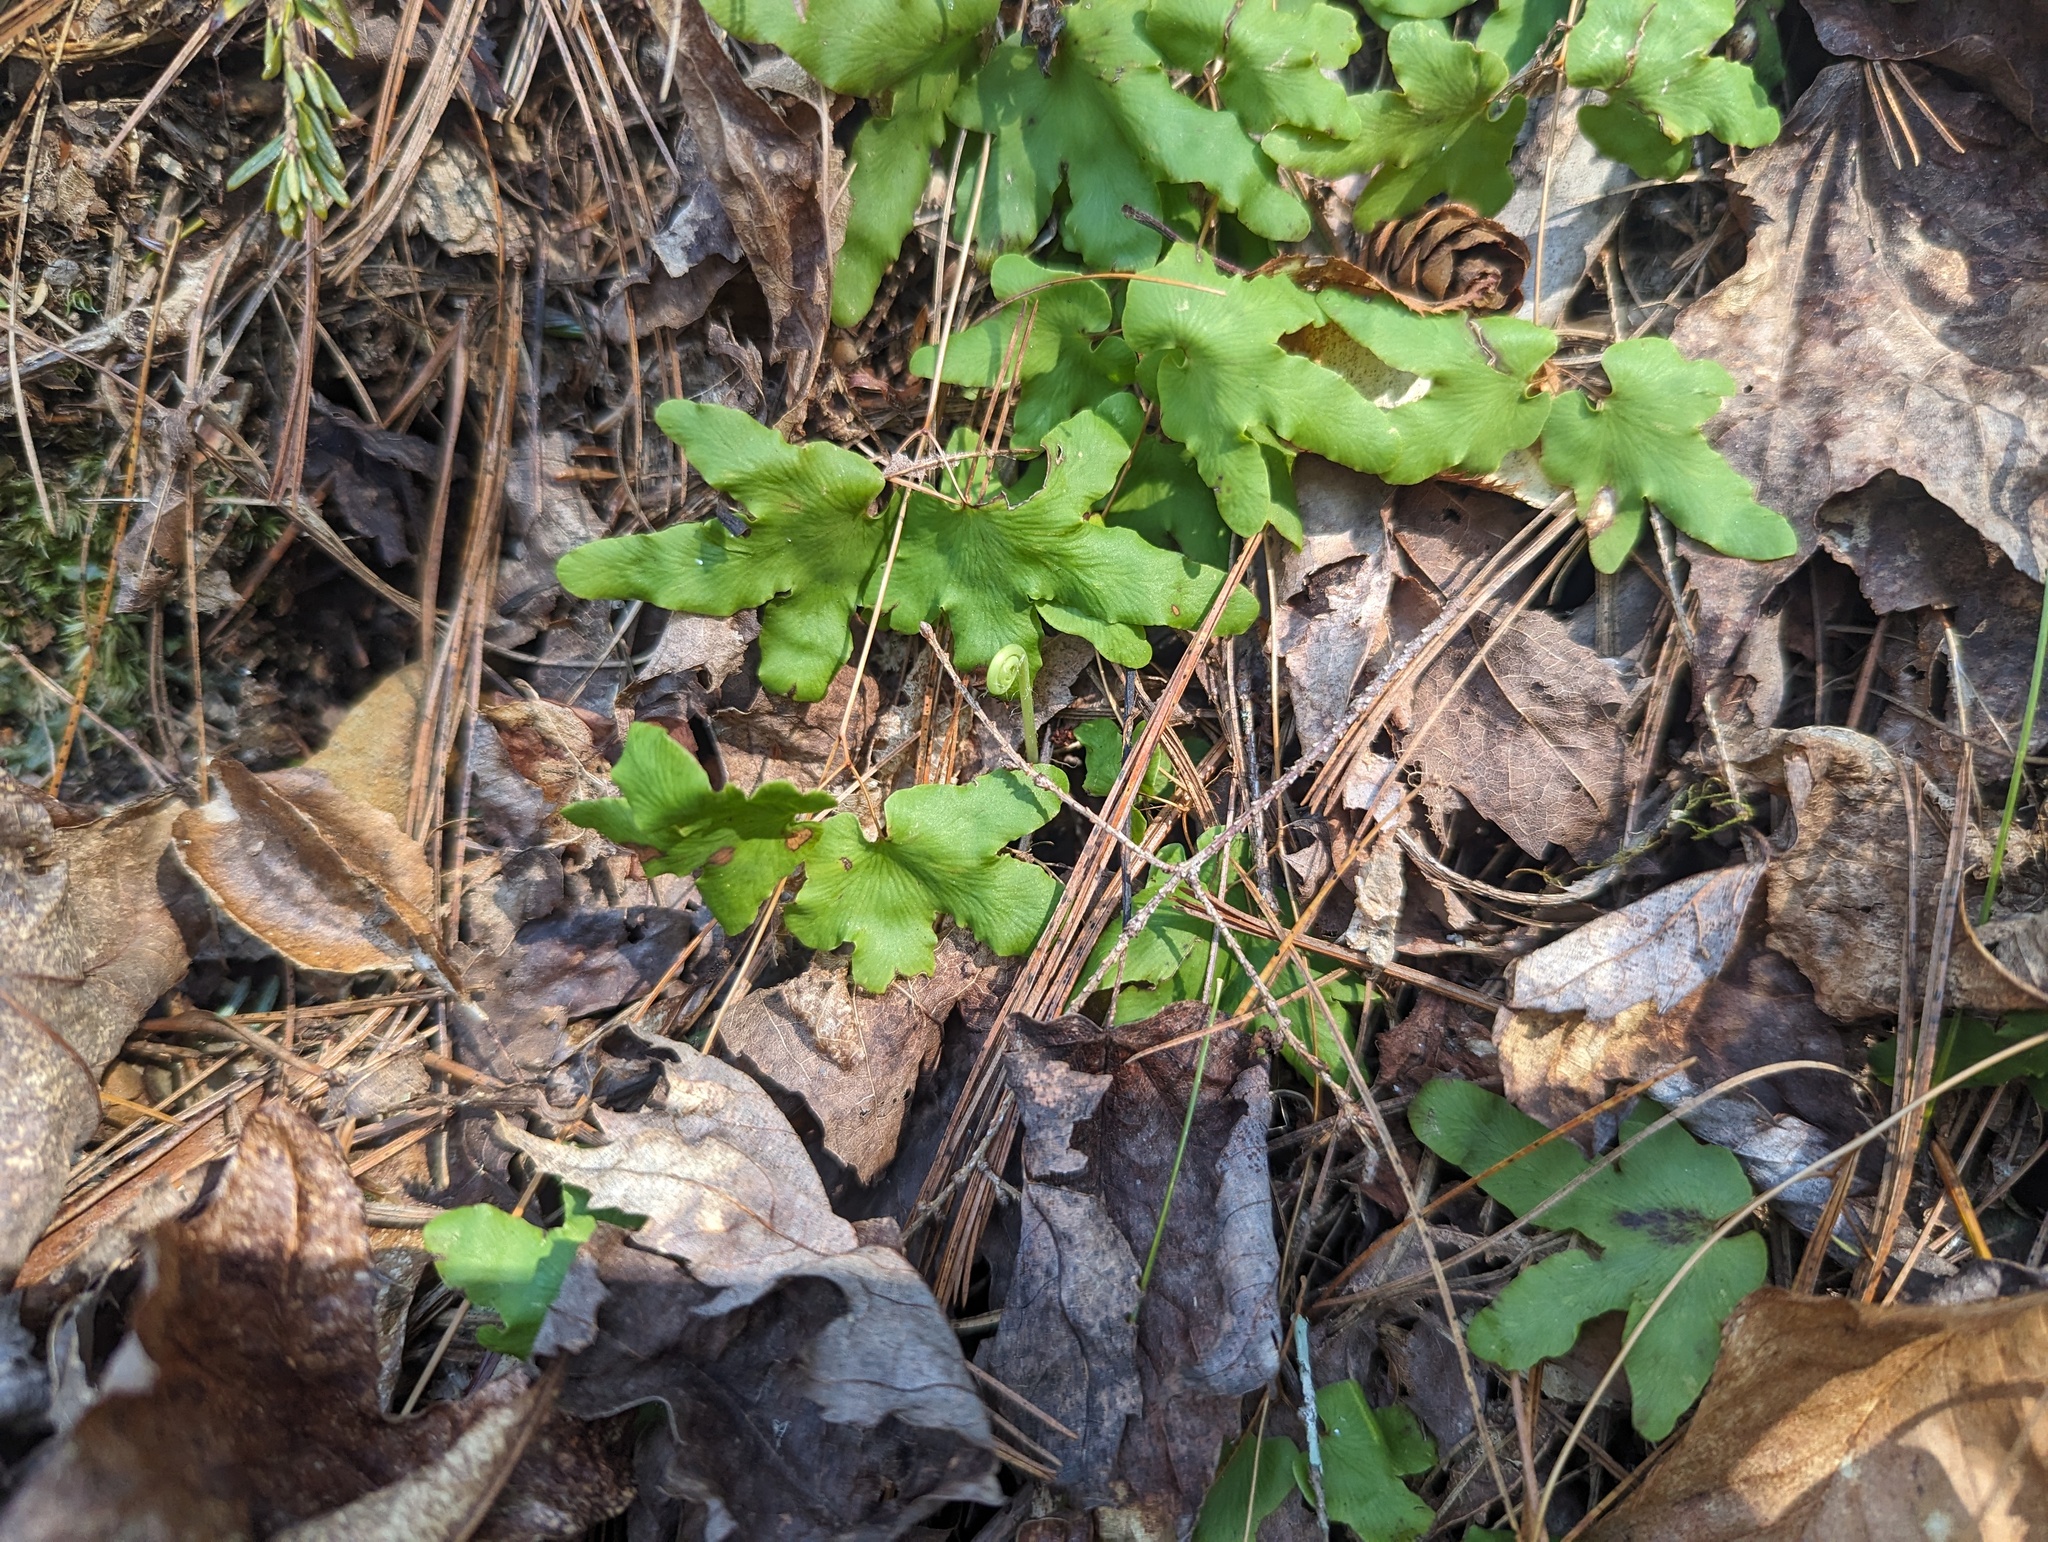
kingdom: Plantae
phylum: Tracheophyta
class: Polypodiopsida
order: Schizaeales
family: Lygodiaceae
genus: Lygodium
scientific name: Lygodium palmatum
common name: American climbing fern
